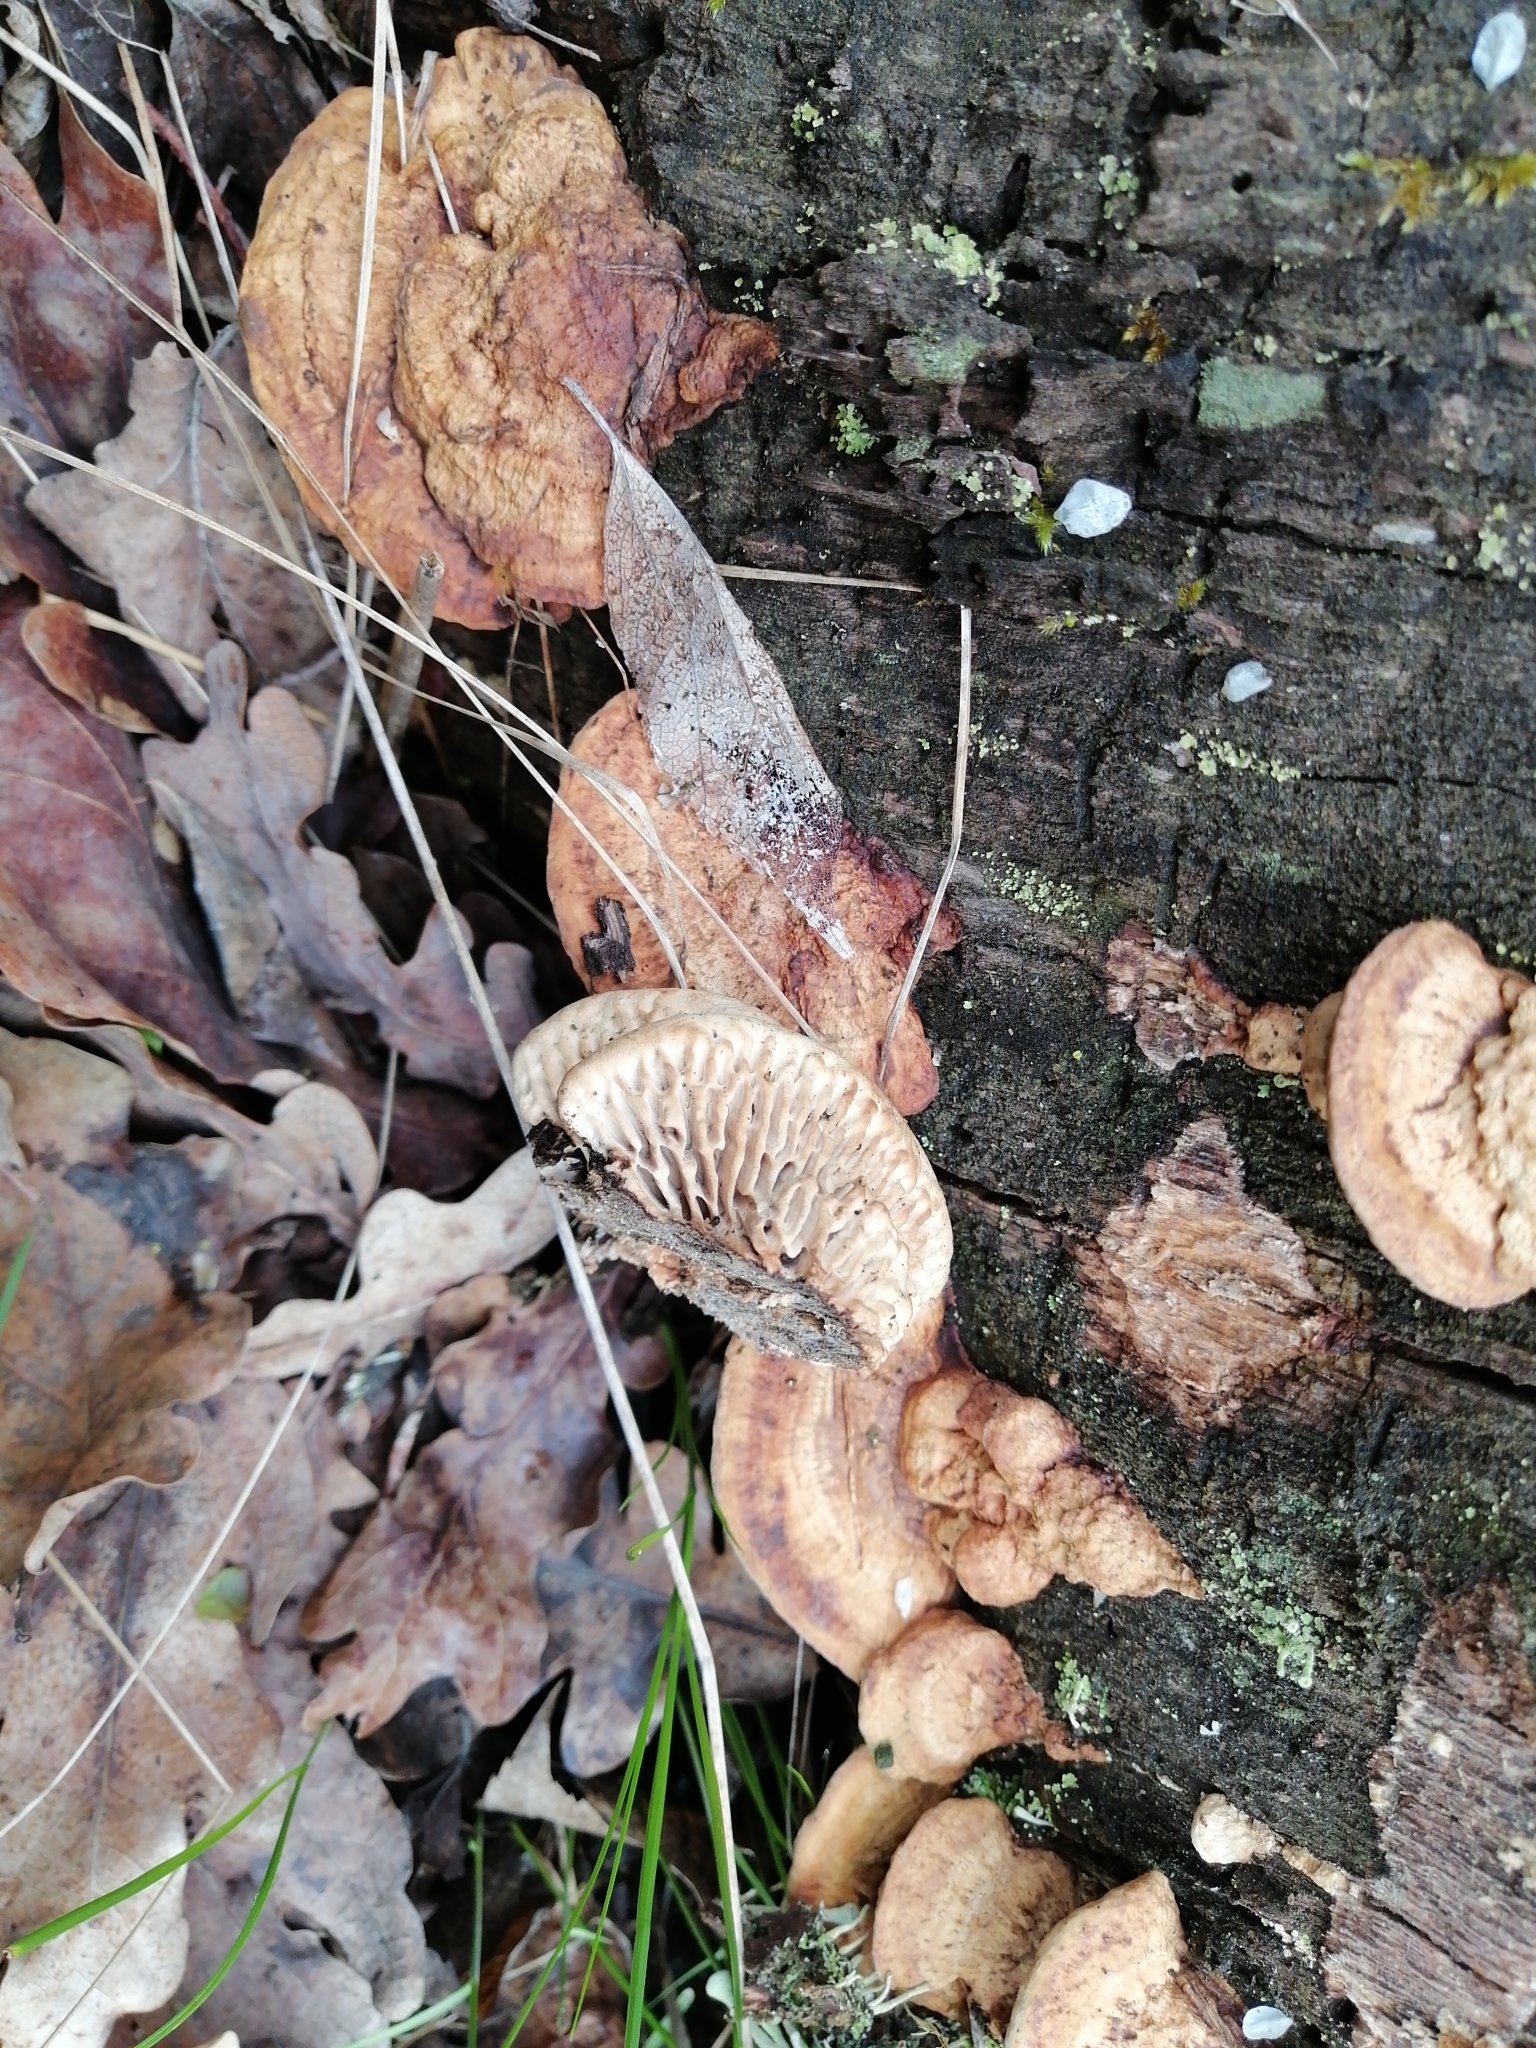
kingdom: Fungi
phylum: Basidiomycota
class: Agaricomycetes
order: Polyporales
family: Fomitopsidaceae
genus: Fomitopsis
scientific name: Fomitopsis
